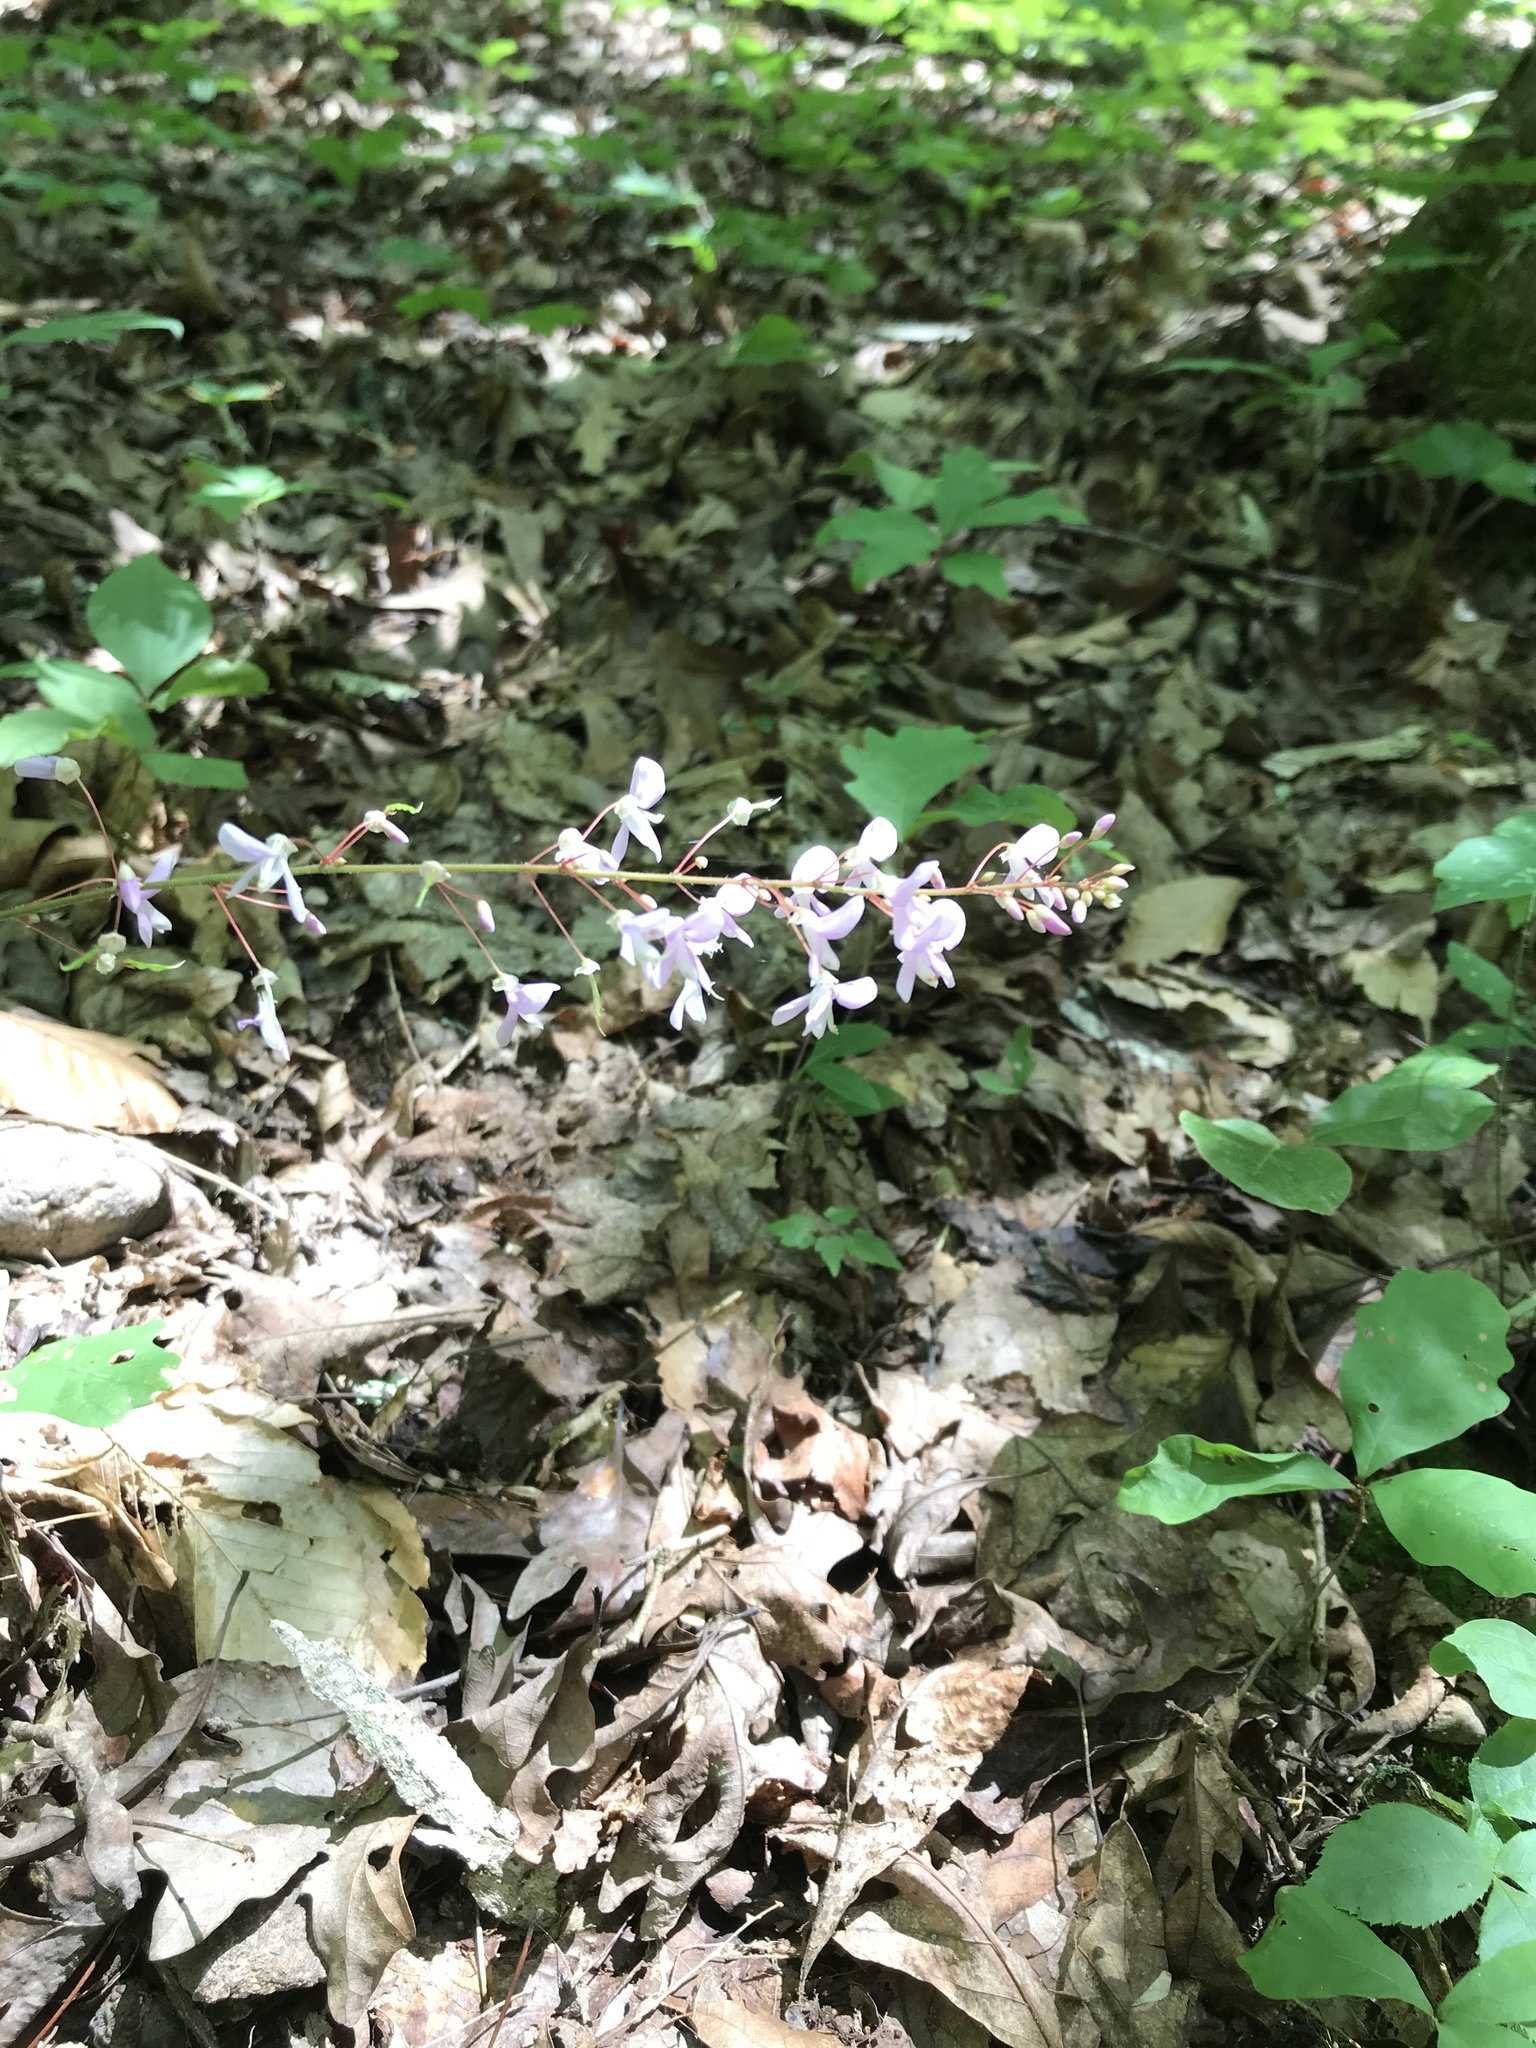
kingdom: Plantae
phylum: Tracheophyta
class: Magnoliopsida
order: Fabales
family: Fabaceae
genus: Hylodesmum
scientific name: Hylodesmum nudiflorum
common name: Bare-stemmed tick-trefoil
